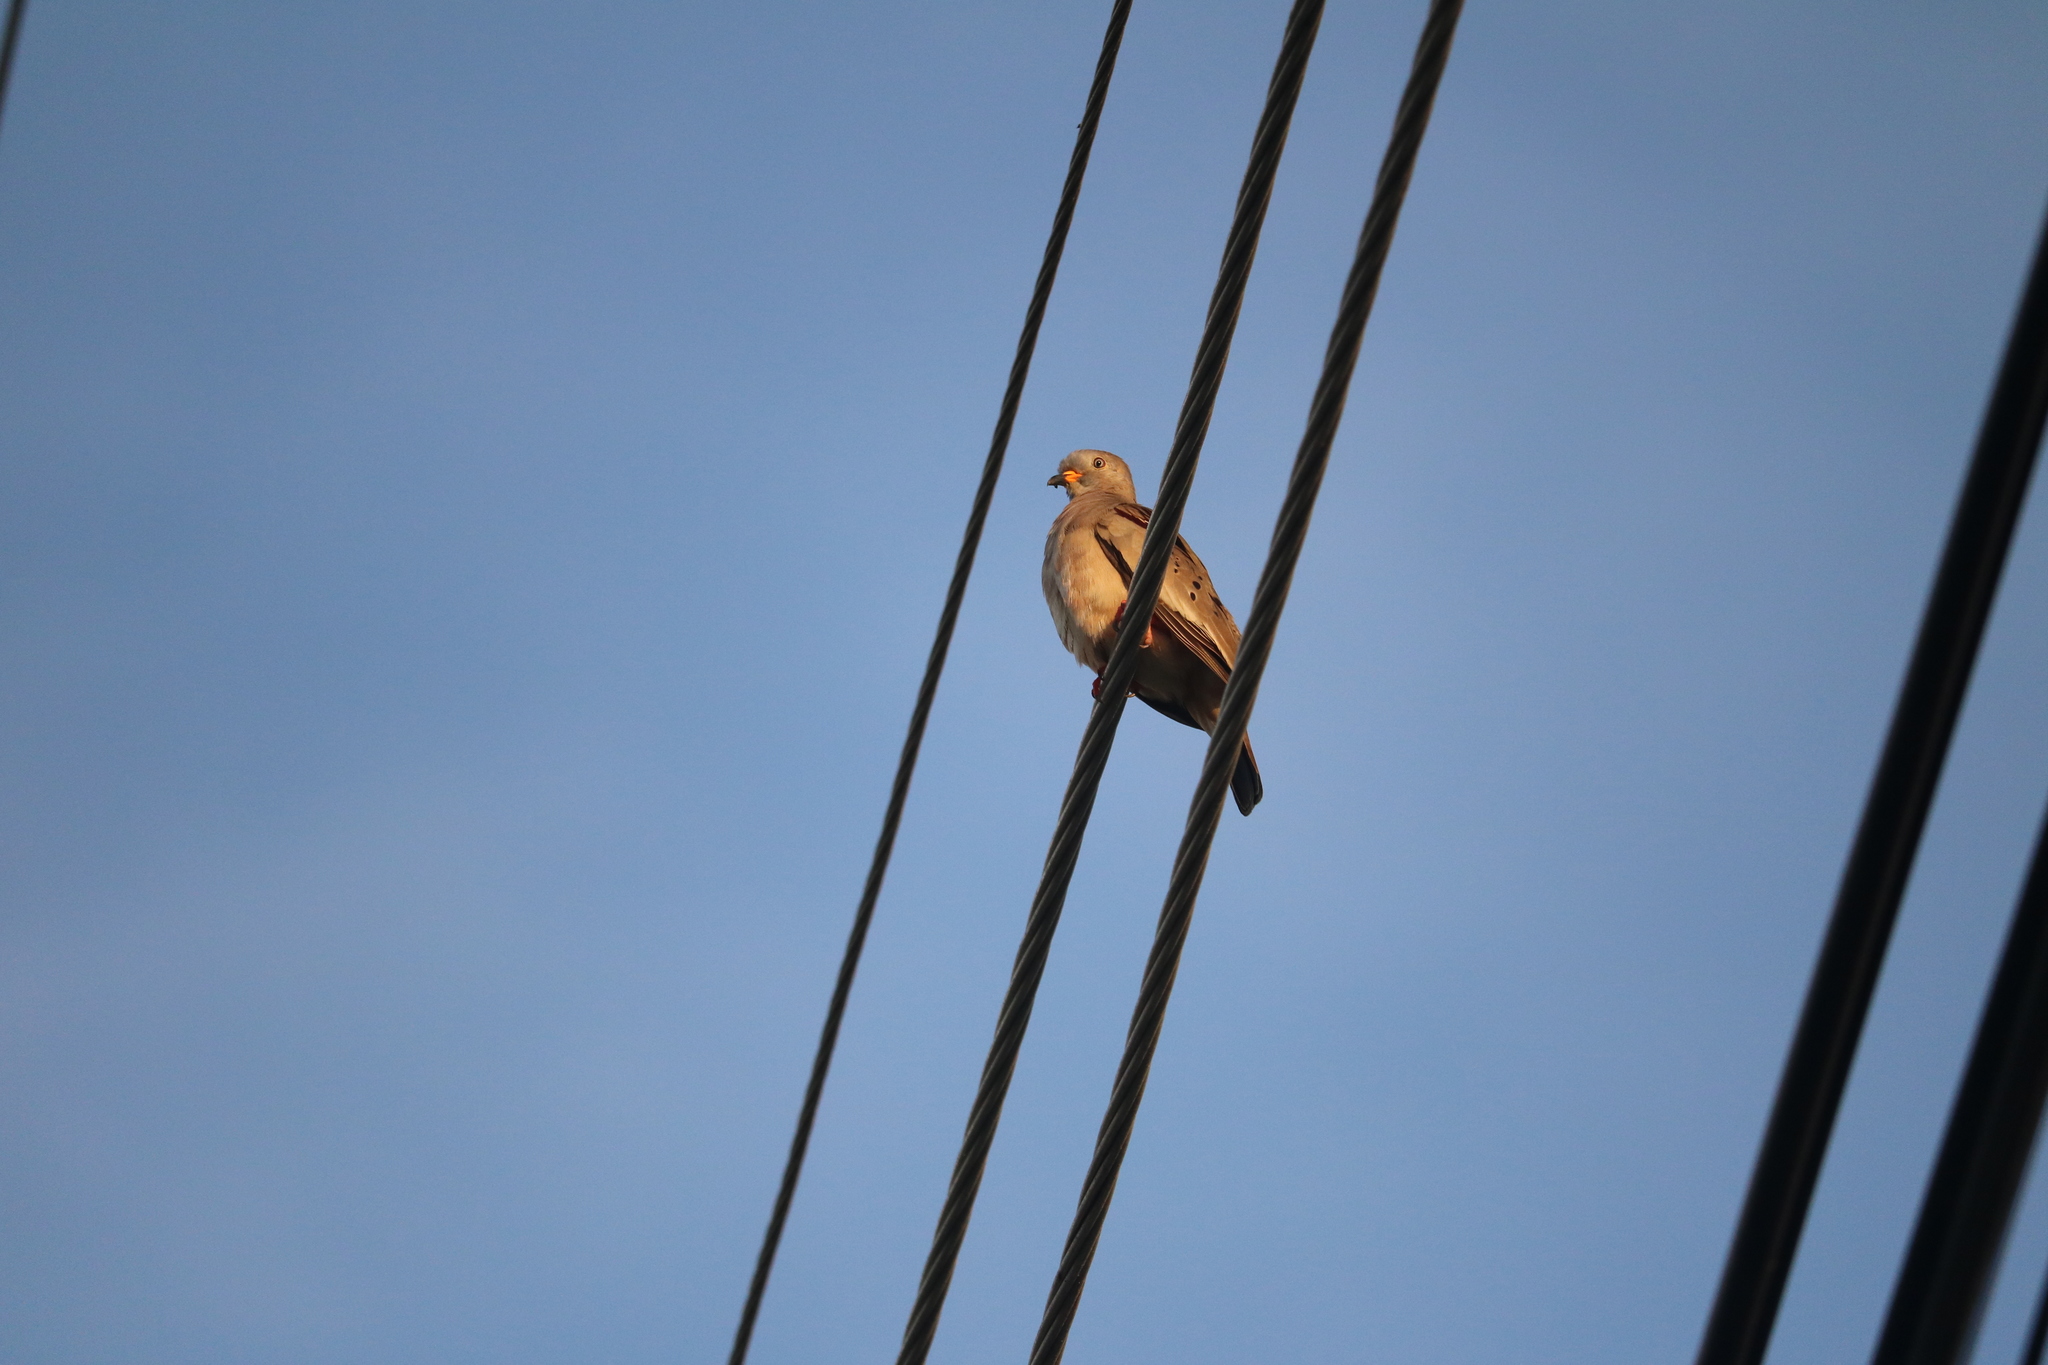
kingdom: Animalia
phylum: Chordata
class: Aves
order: Columbiformes
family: Columbidae
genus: Columbina
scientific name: Columbina cruziana
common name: Croaking ground dove
